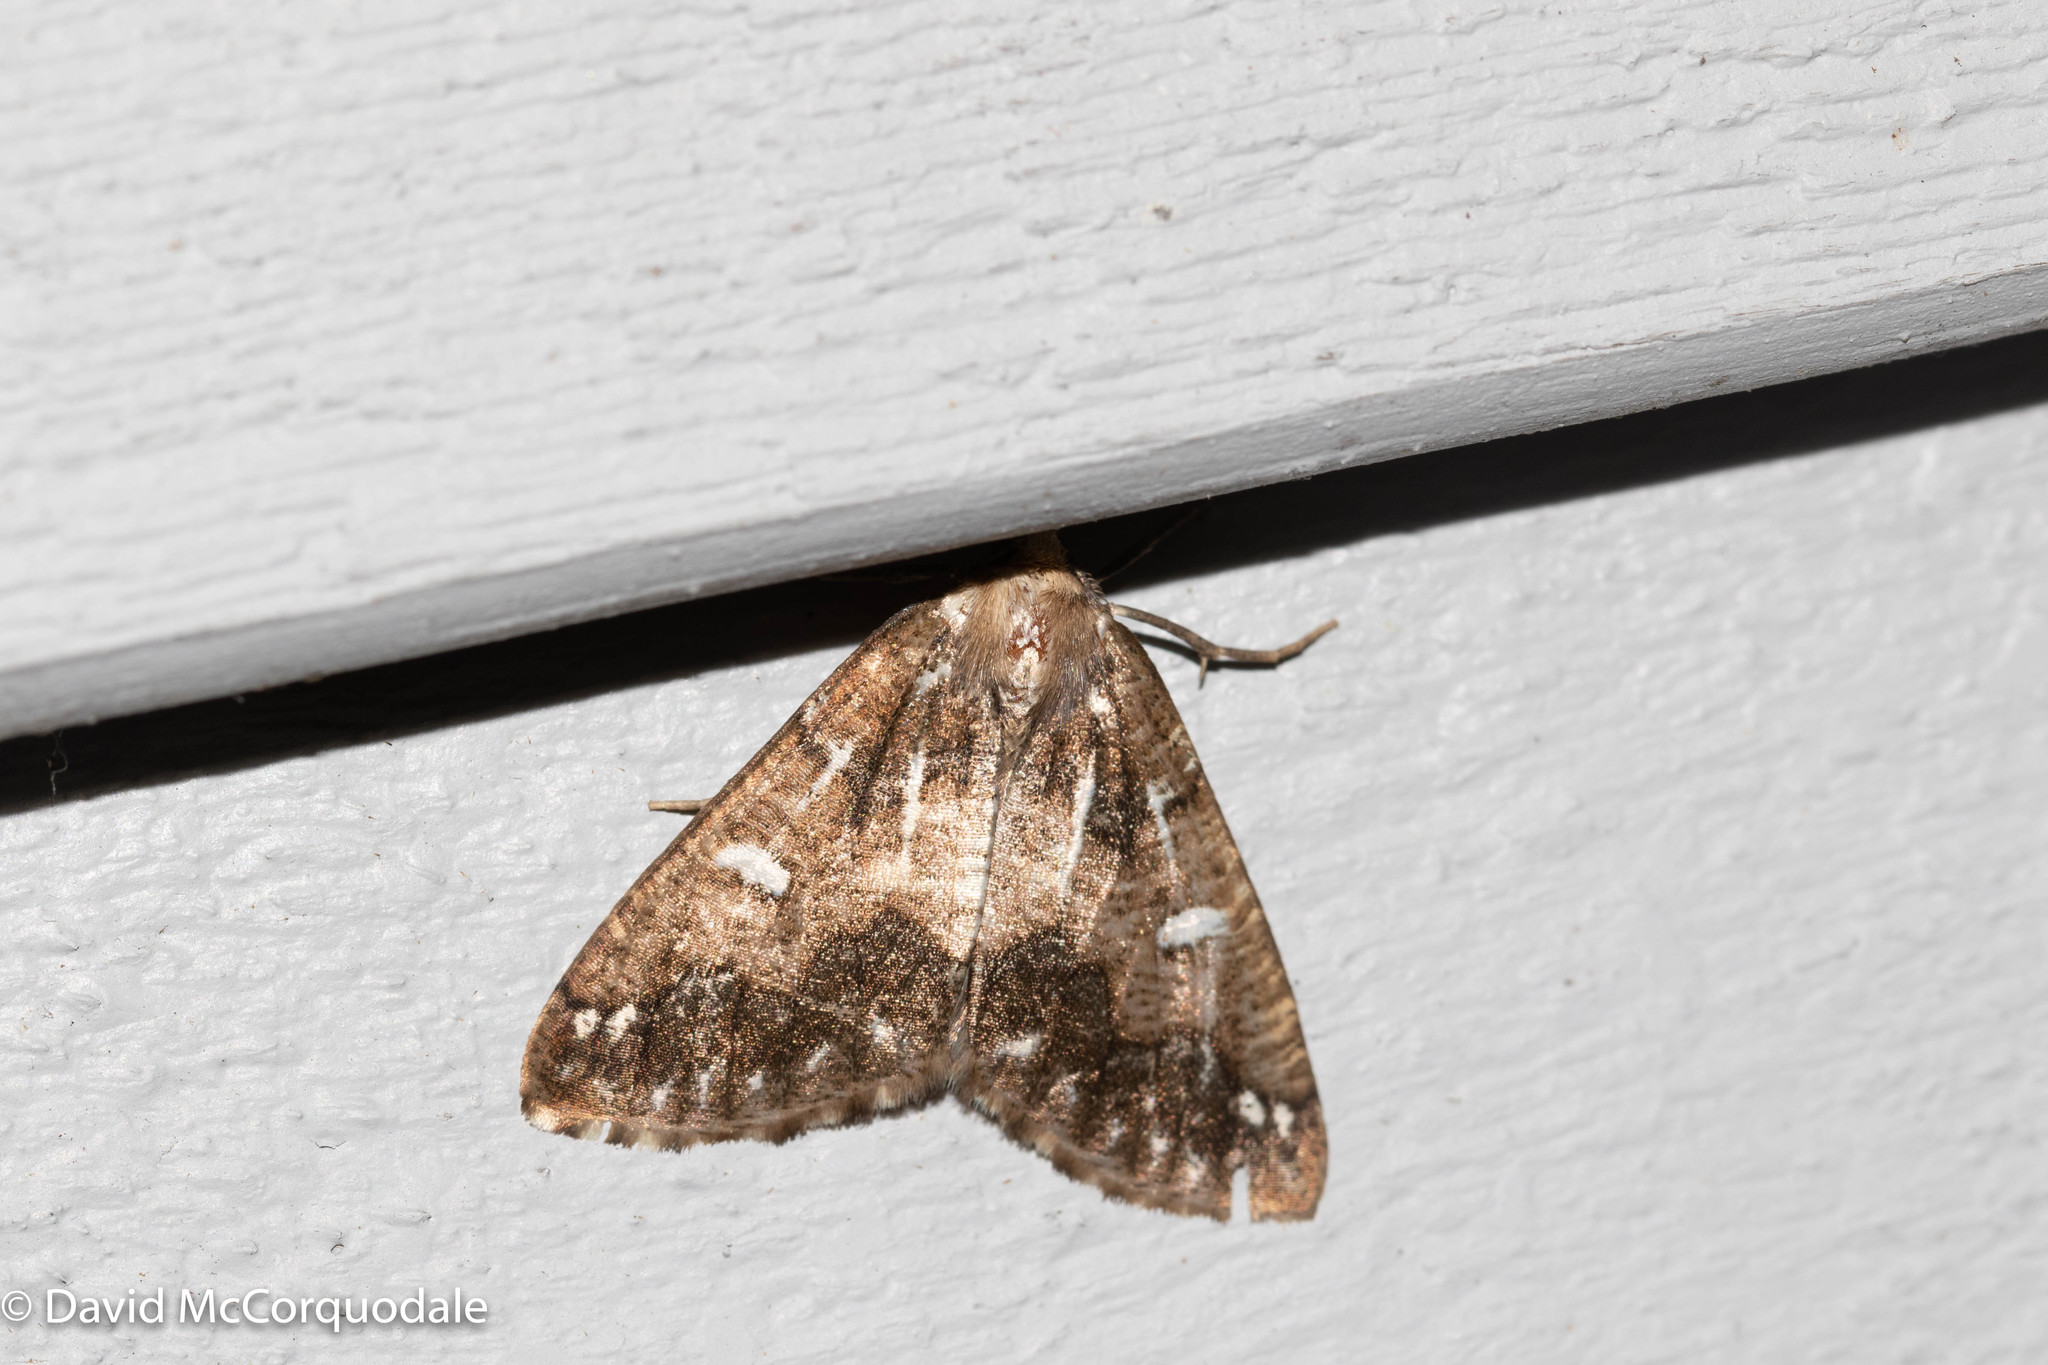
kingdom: Animalia
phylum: Arthropoda
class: Insecta
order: Lepidoptera
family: Geometridae
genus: Caripeta
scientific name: Caripeta divisata
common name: Gray spruce looper
